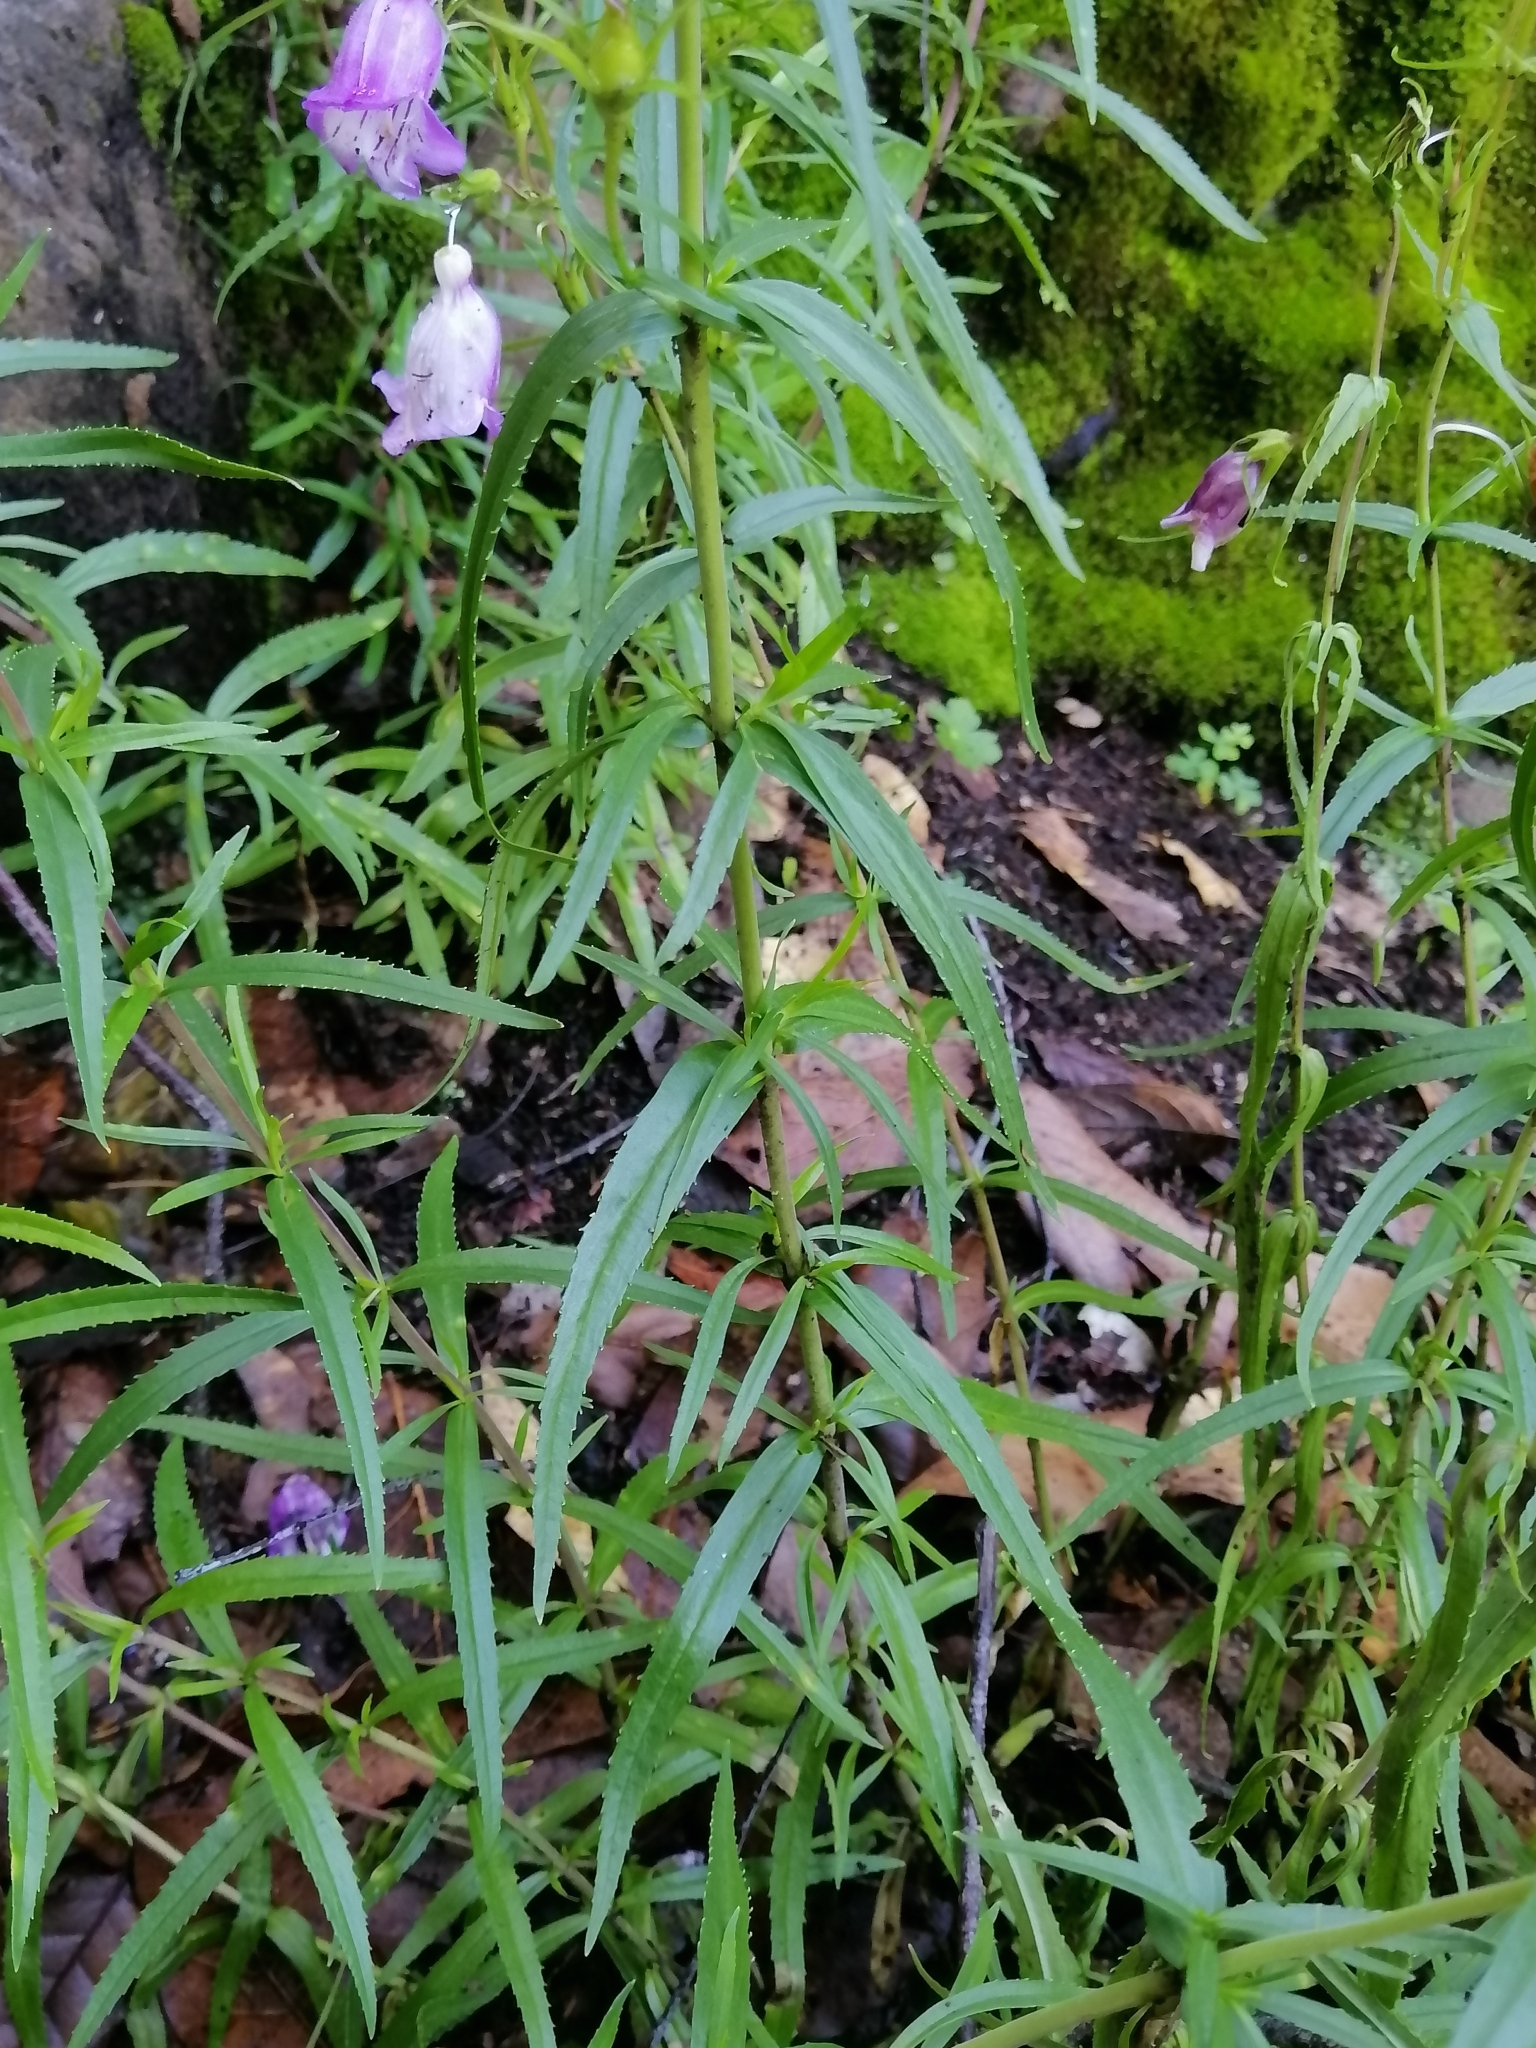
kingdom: Plantae
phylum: Tracheophyta
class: Magnoliopsida
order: Lamiales
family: Plantaginaceae
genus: Penstemon
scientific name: Penstemon campanulatus
